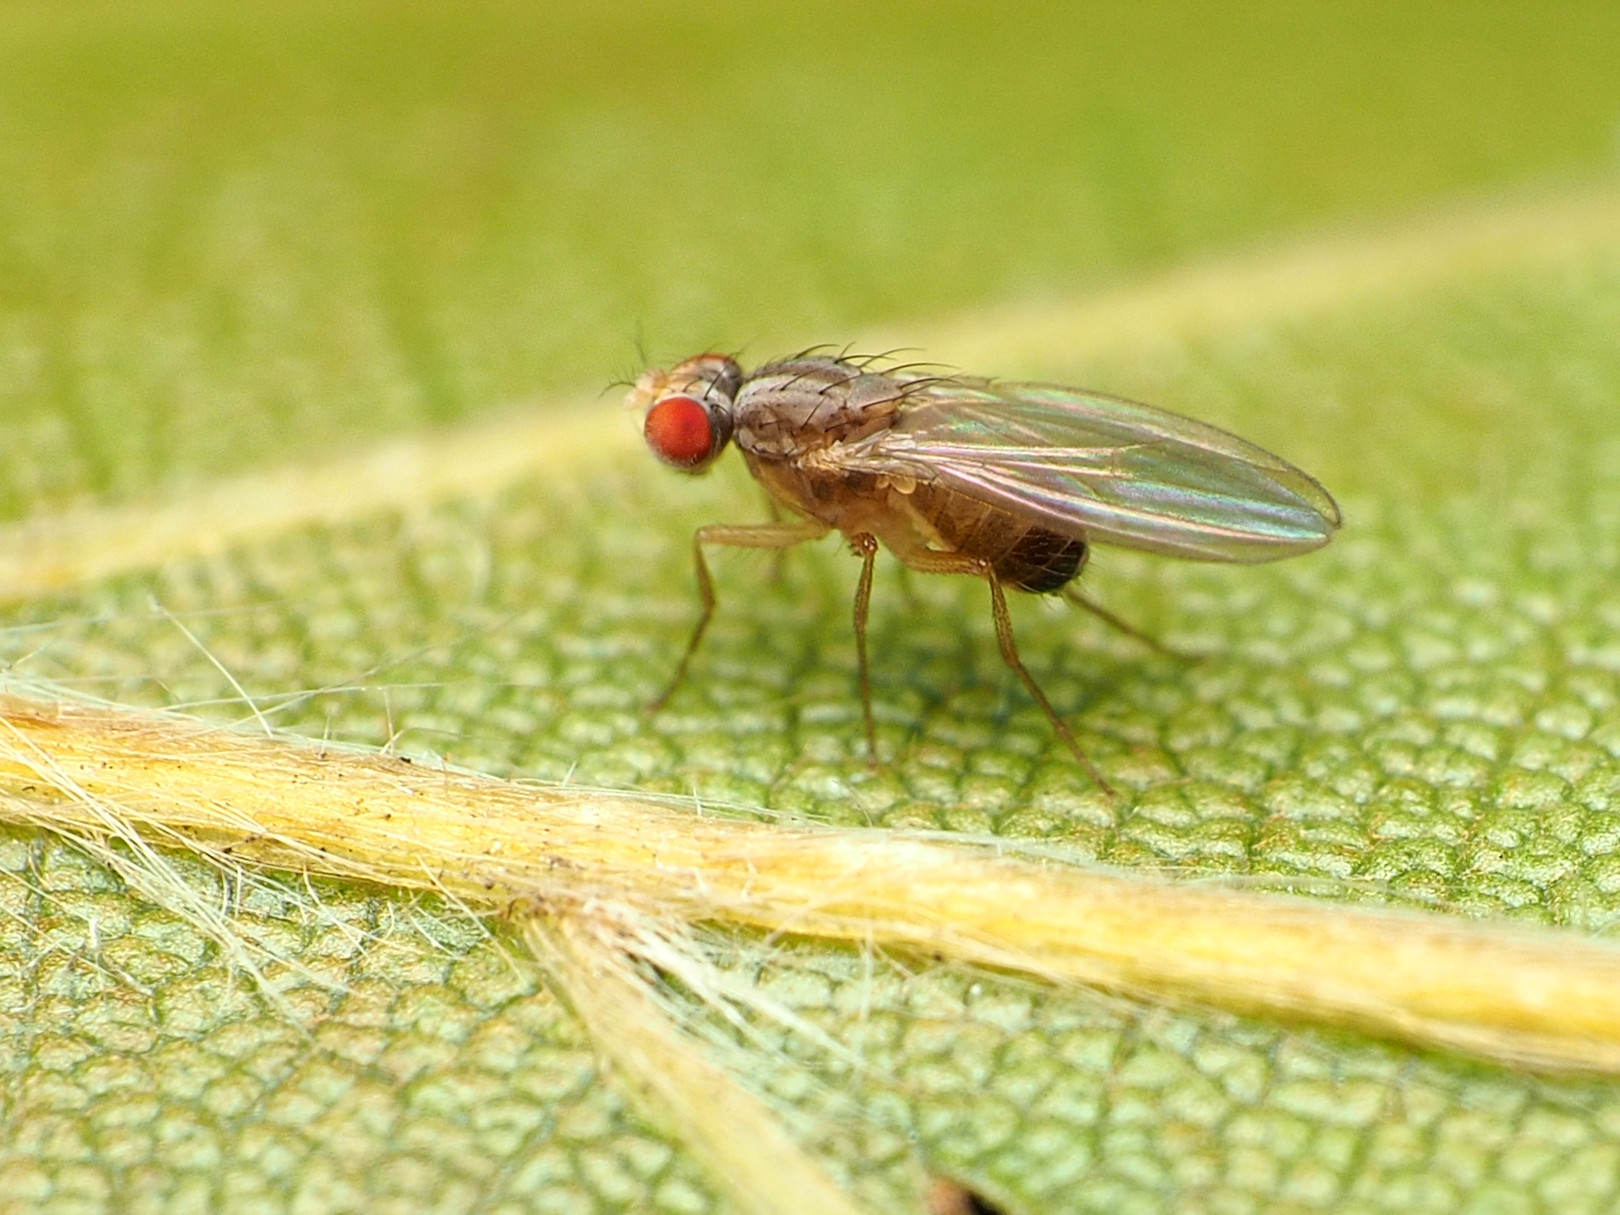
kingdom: Animalia
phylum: Arthropoda
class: Insecta
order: Diptera
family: Drosophilidae
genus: Scaptomyza
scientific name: Scaptomyza pallida
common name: Pomace fly
